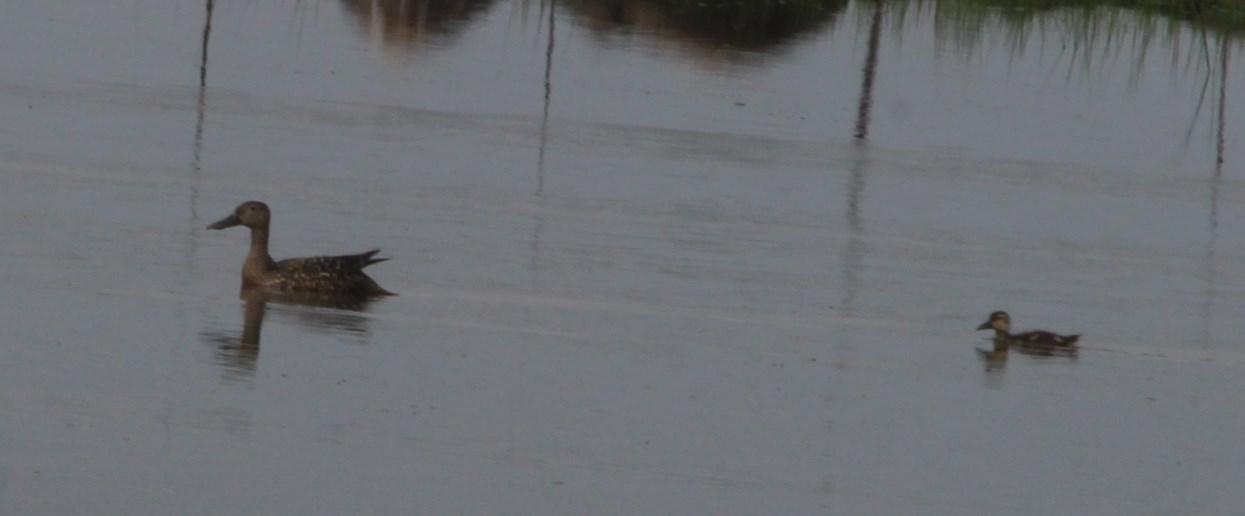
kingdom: Animalia
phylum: Chordata
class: Aves
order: Anseriformes
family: Anatidae
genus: Spatula
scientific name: Spatula smithii
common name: Cape shoveler
